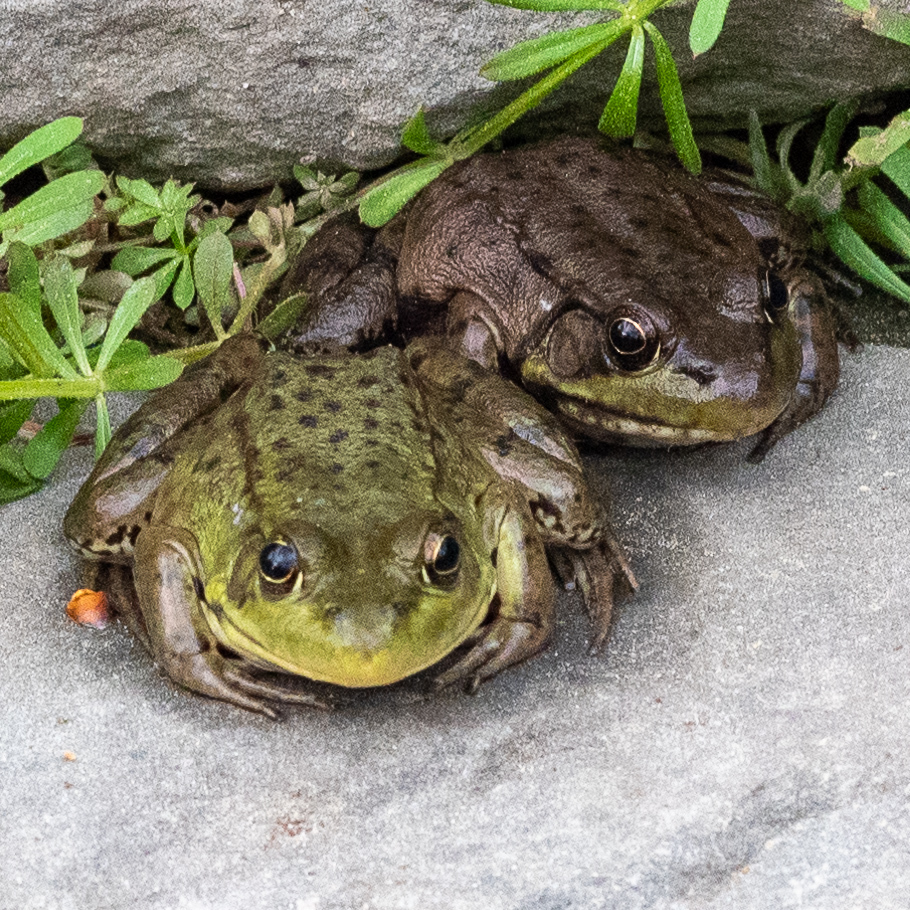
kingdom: Animalia
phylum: Chordata
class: Amphibia
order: Anura
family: Ranidae
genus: Lithobates
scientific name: Lithobates clamitans
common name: Green frog
